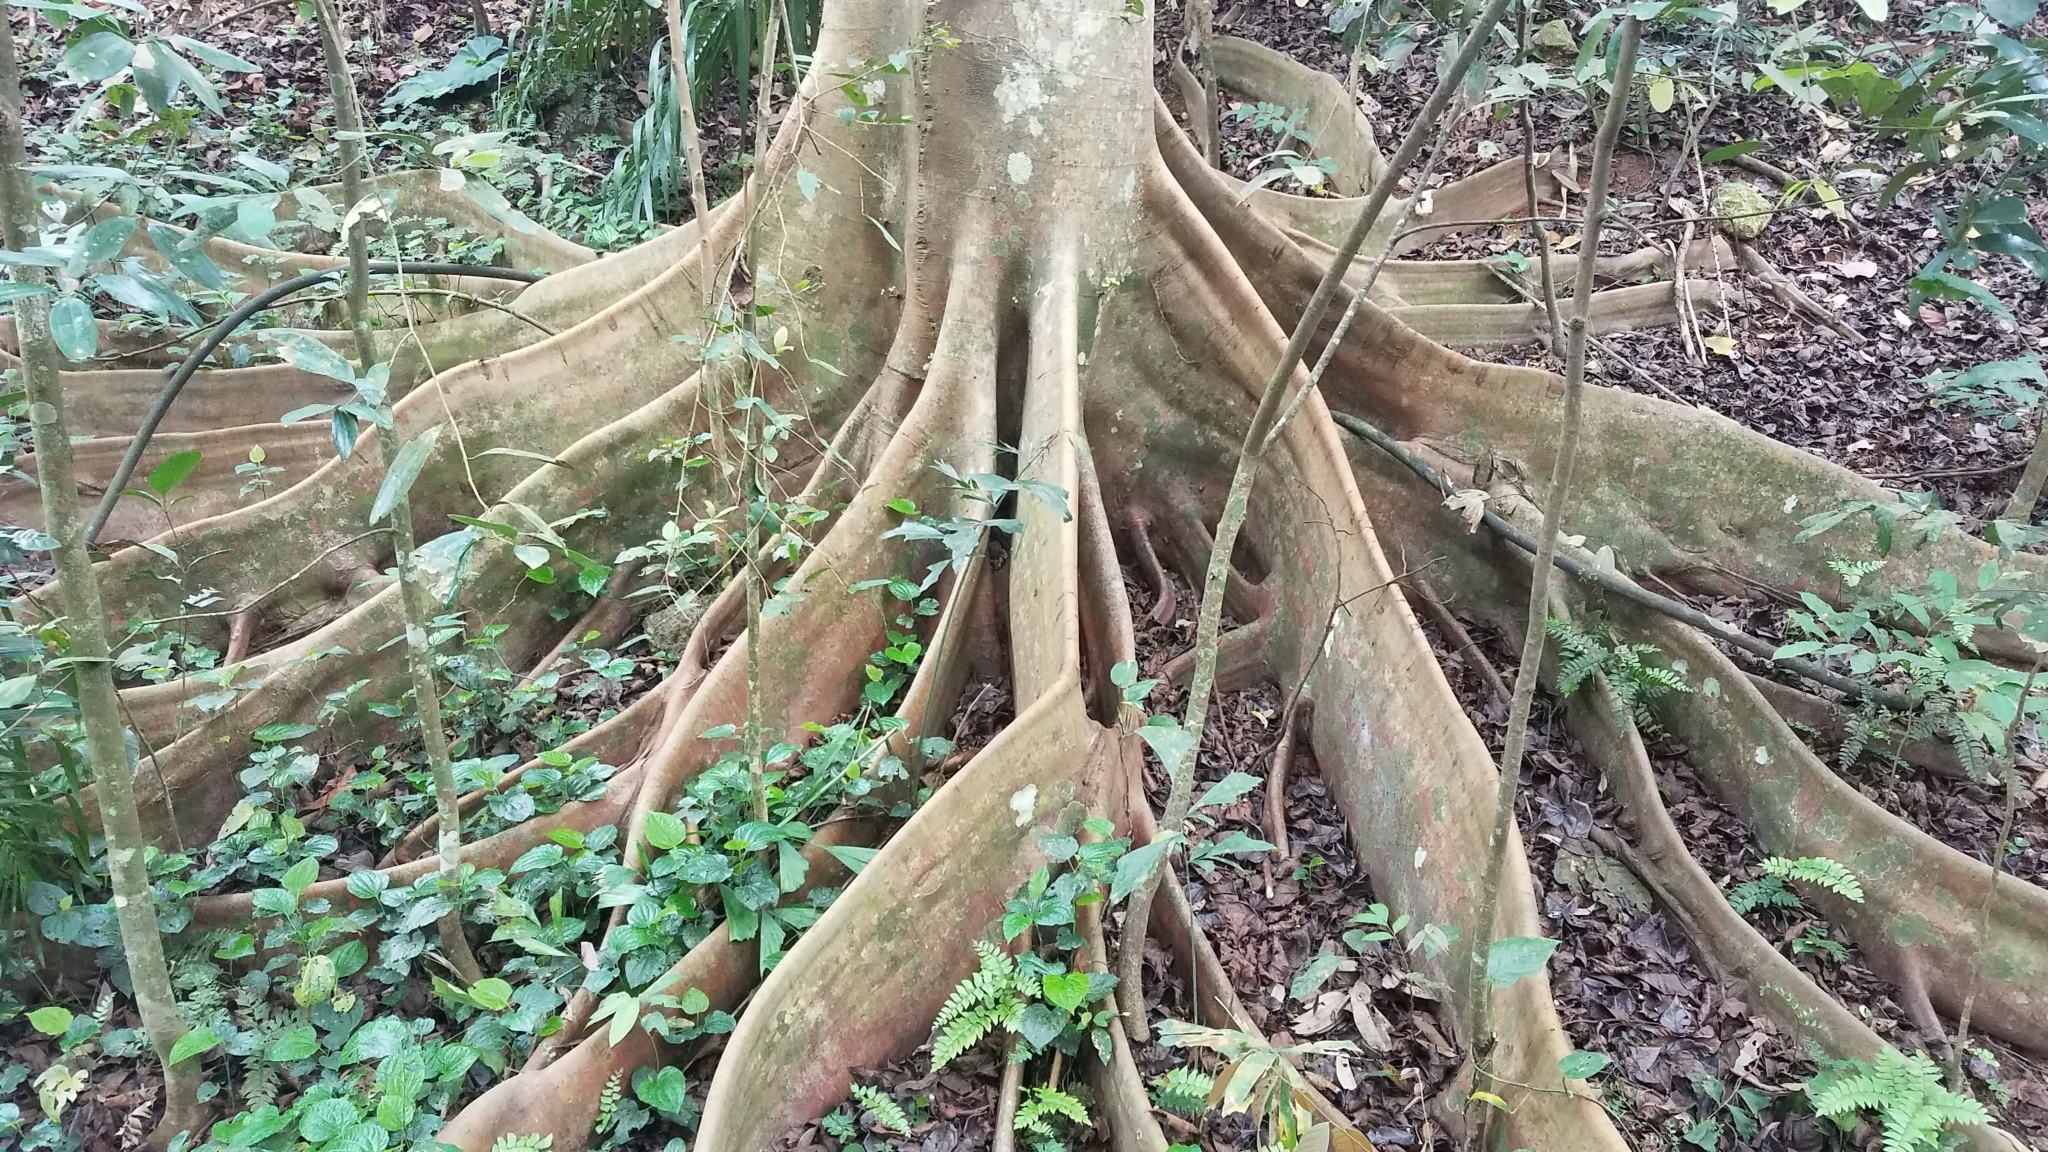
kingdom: Plantae
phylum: Tracheophyta
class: Magnoliopsida
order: Rosales
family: Moraceae
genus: Ficus
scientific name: Ficus variegata
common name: Variegated fig
